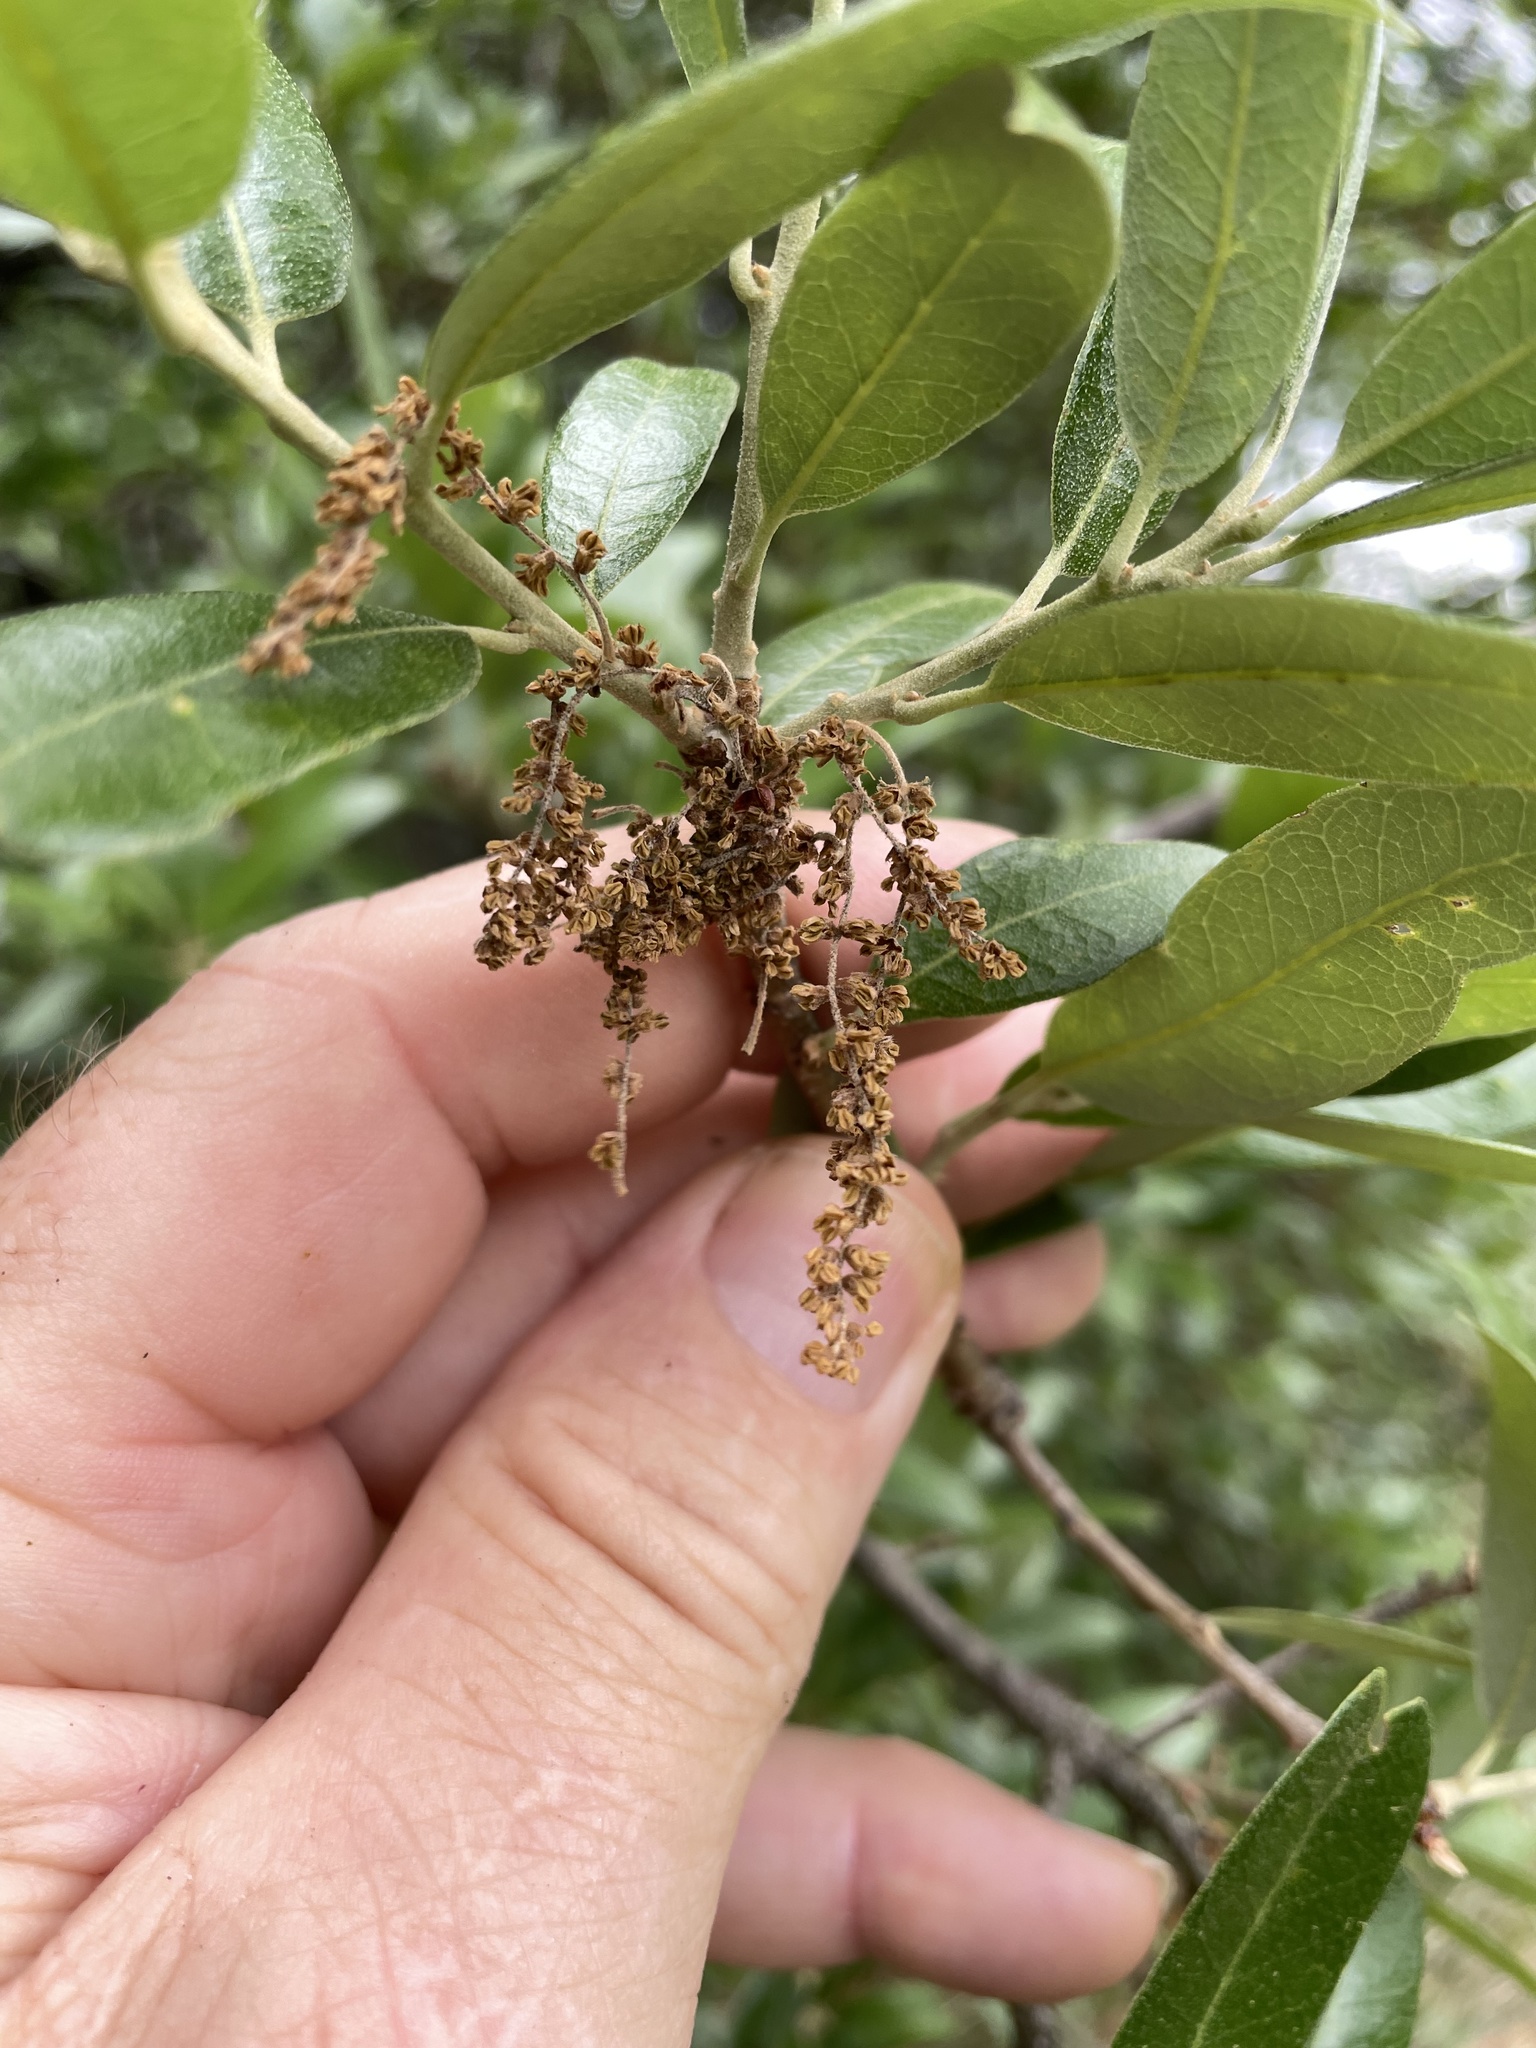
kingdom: Plantae
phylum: Tracheophyta
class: Magnoliopsida
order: Fagales
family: Fagaceae
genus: Quercus
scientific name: Quercus fusiformis
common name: Texas live oak
